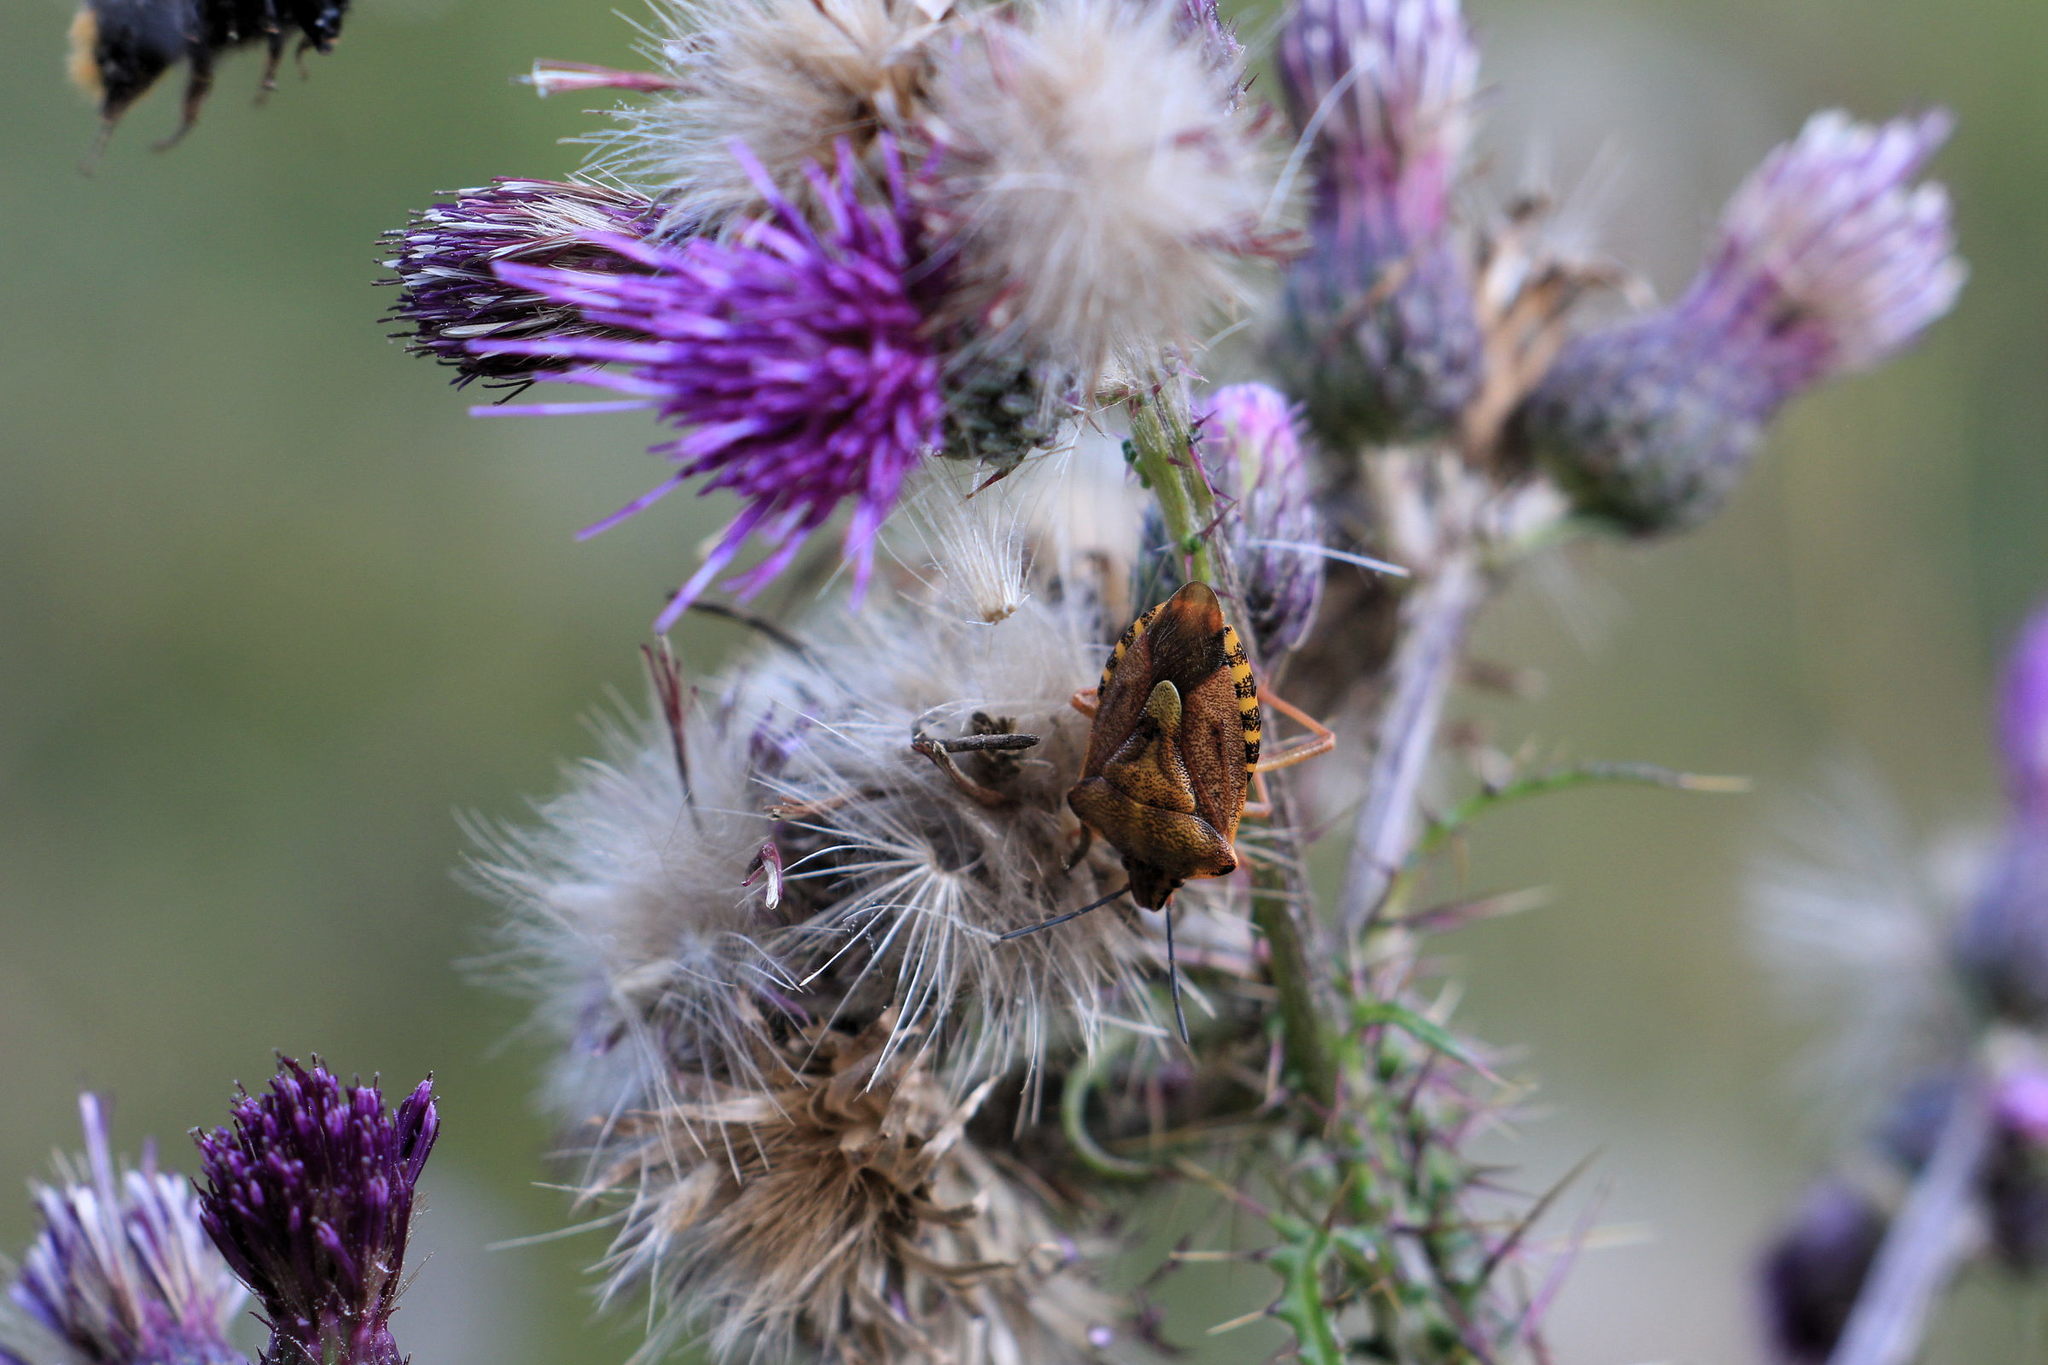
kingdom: Animalia
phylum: Arthropoda
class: Insecta
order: Hemiptera
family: Pentatomidae
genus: Carpocoris
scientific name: Carpocoris purpureipennis
